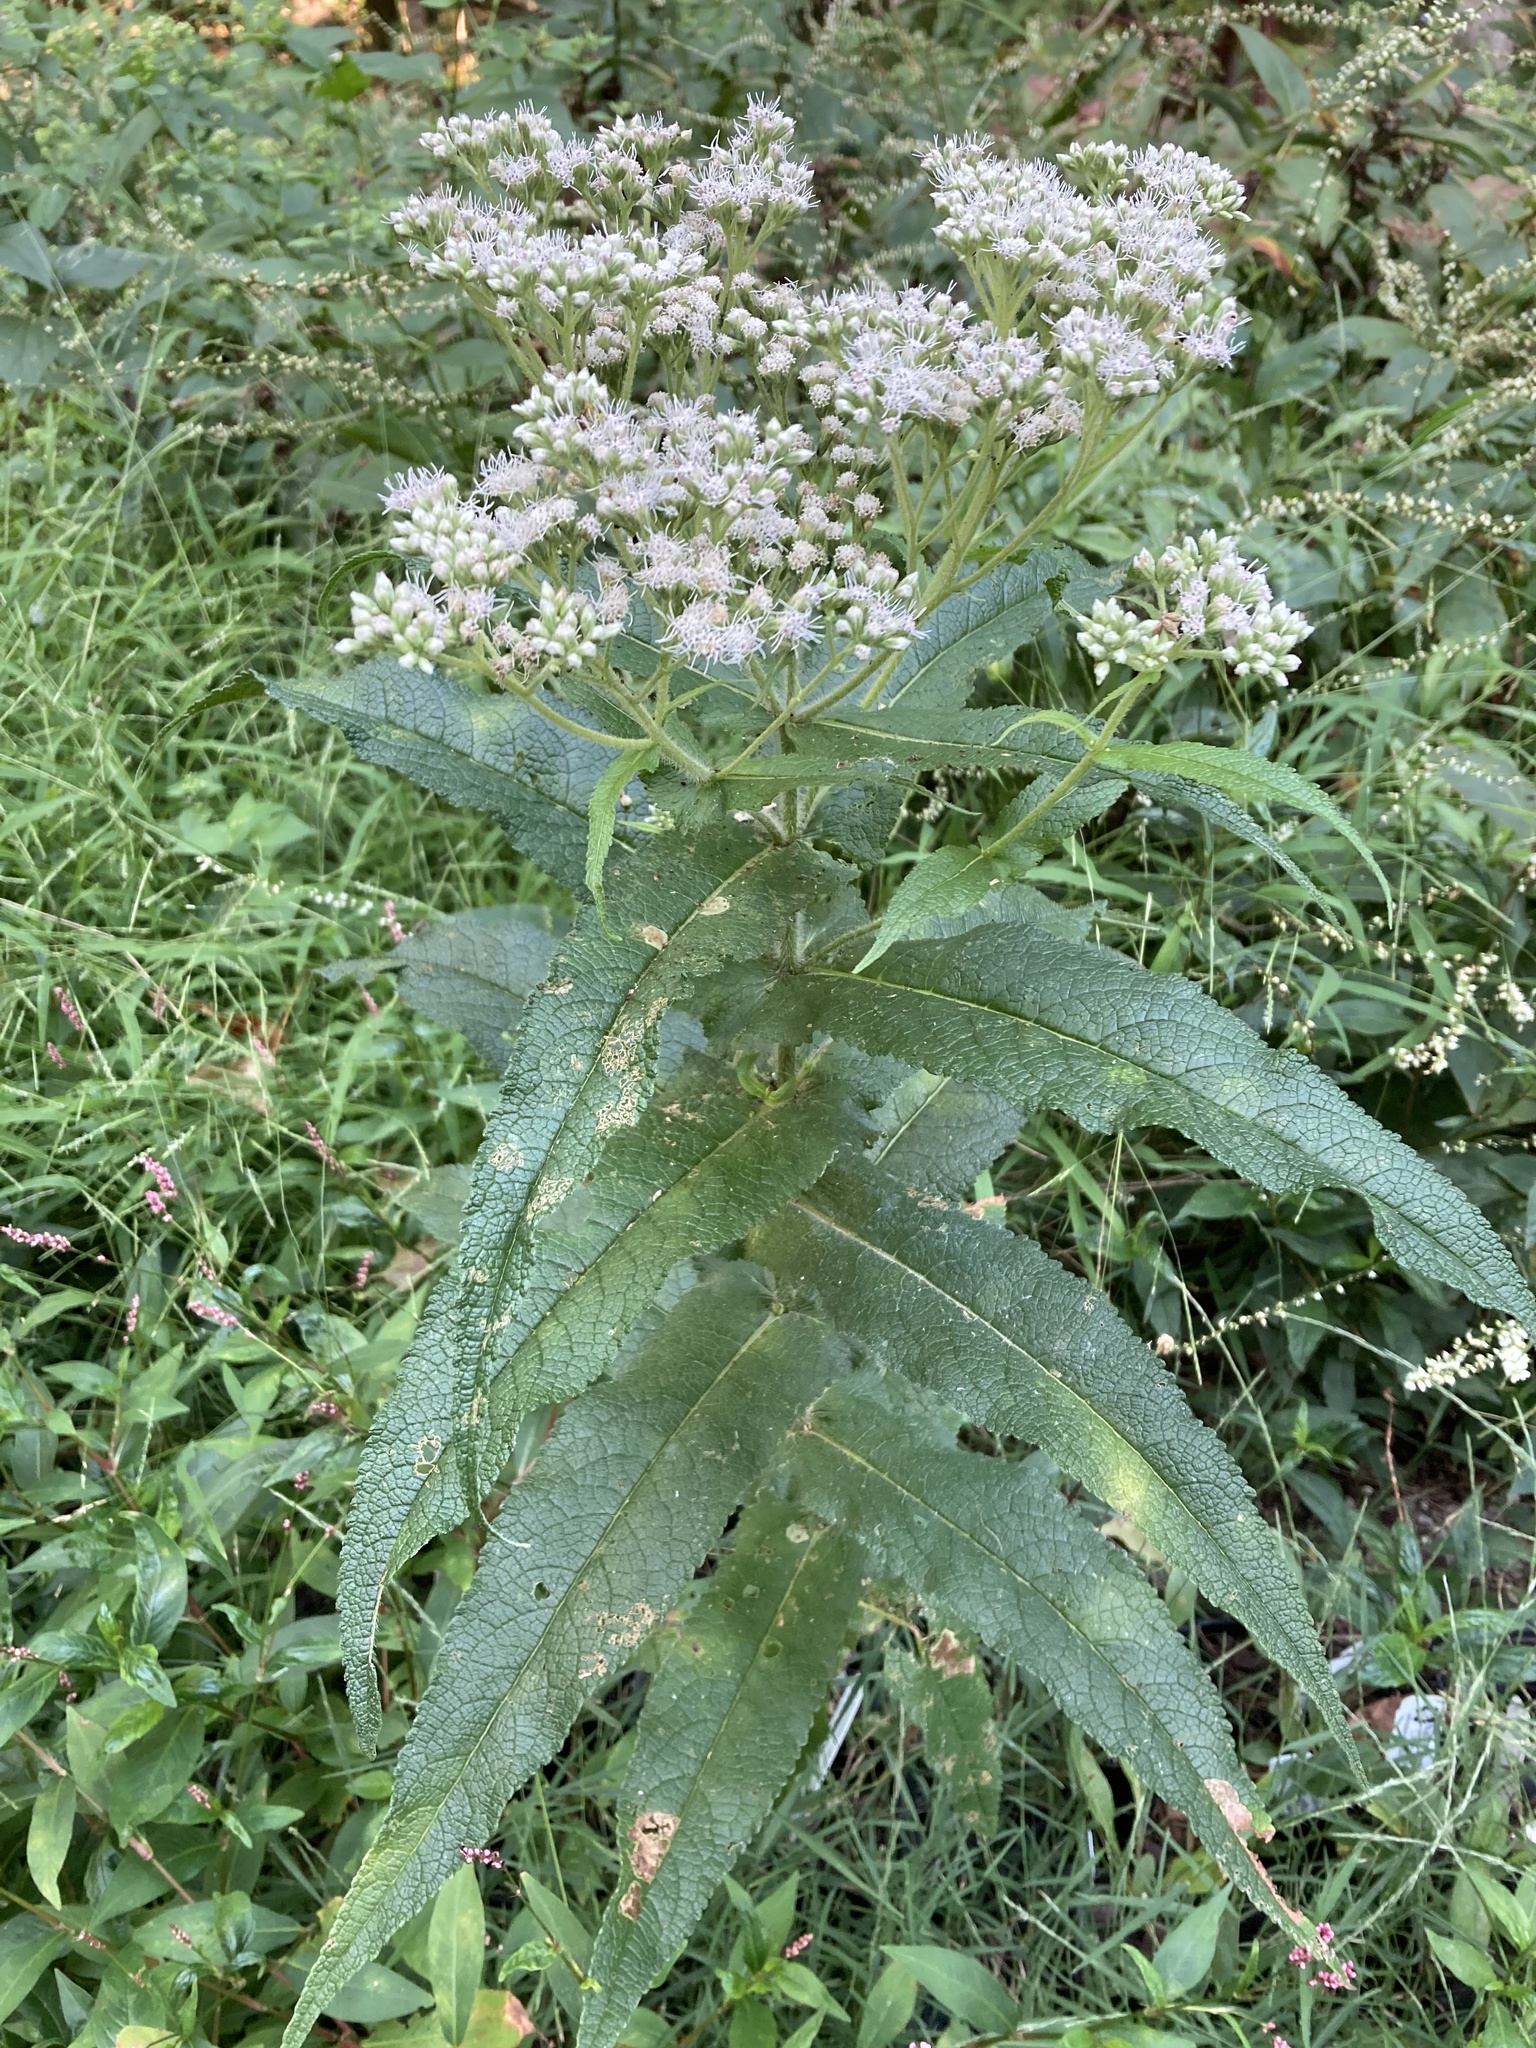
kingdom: Plantae
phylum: Tracheophyta
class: Magnoliopsida
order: Asterales
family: Asteraceae
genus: Eupatorium
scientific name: Eupatorium perfoliatum
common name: Boneset
